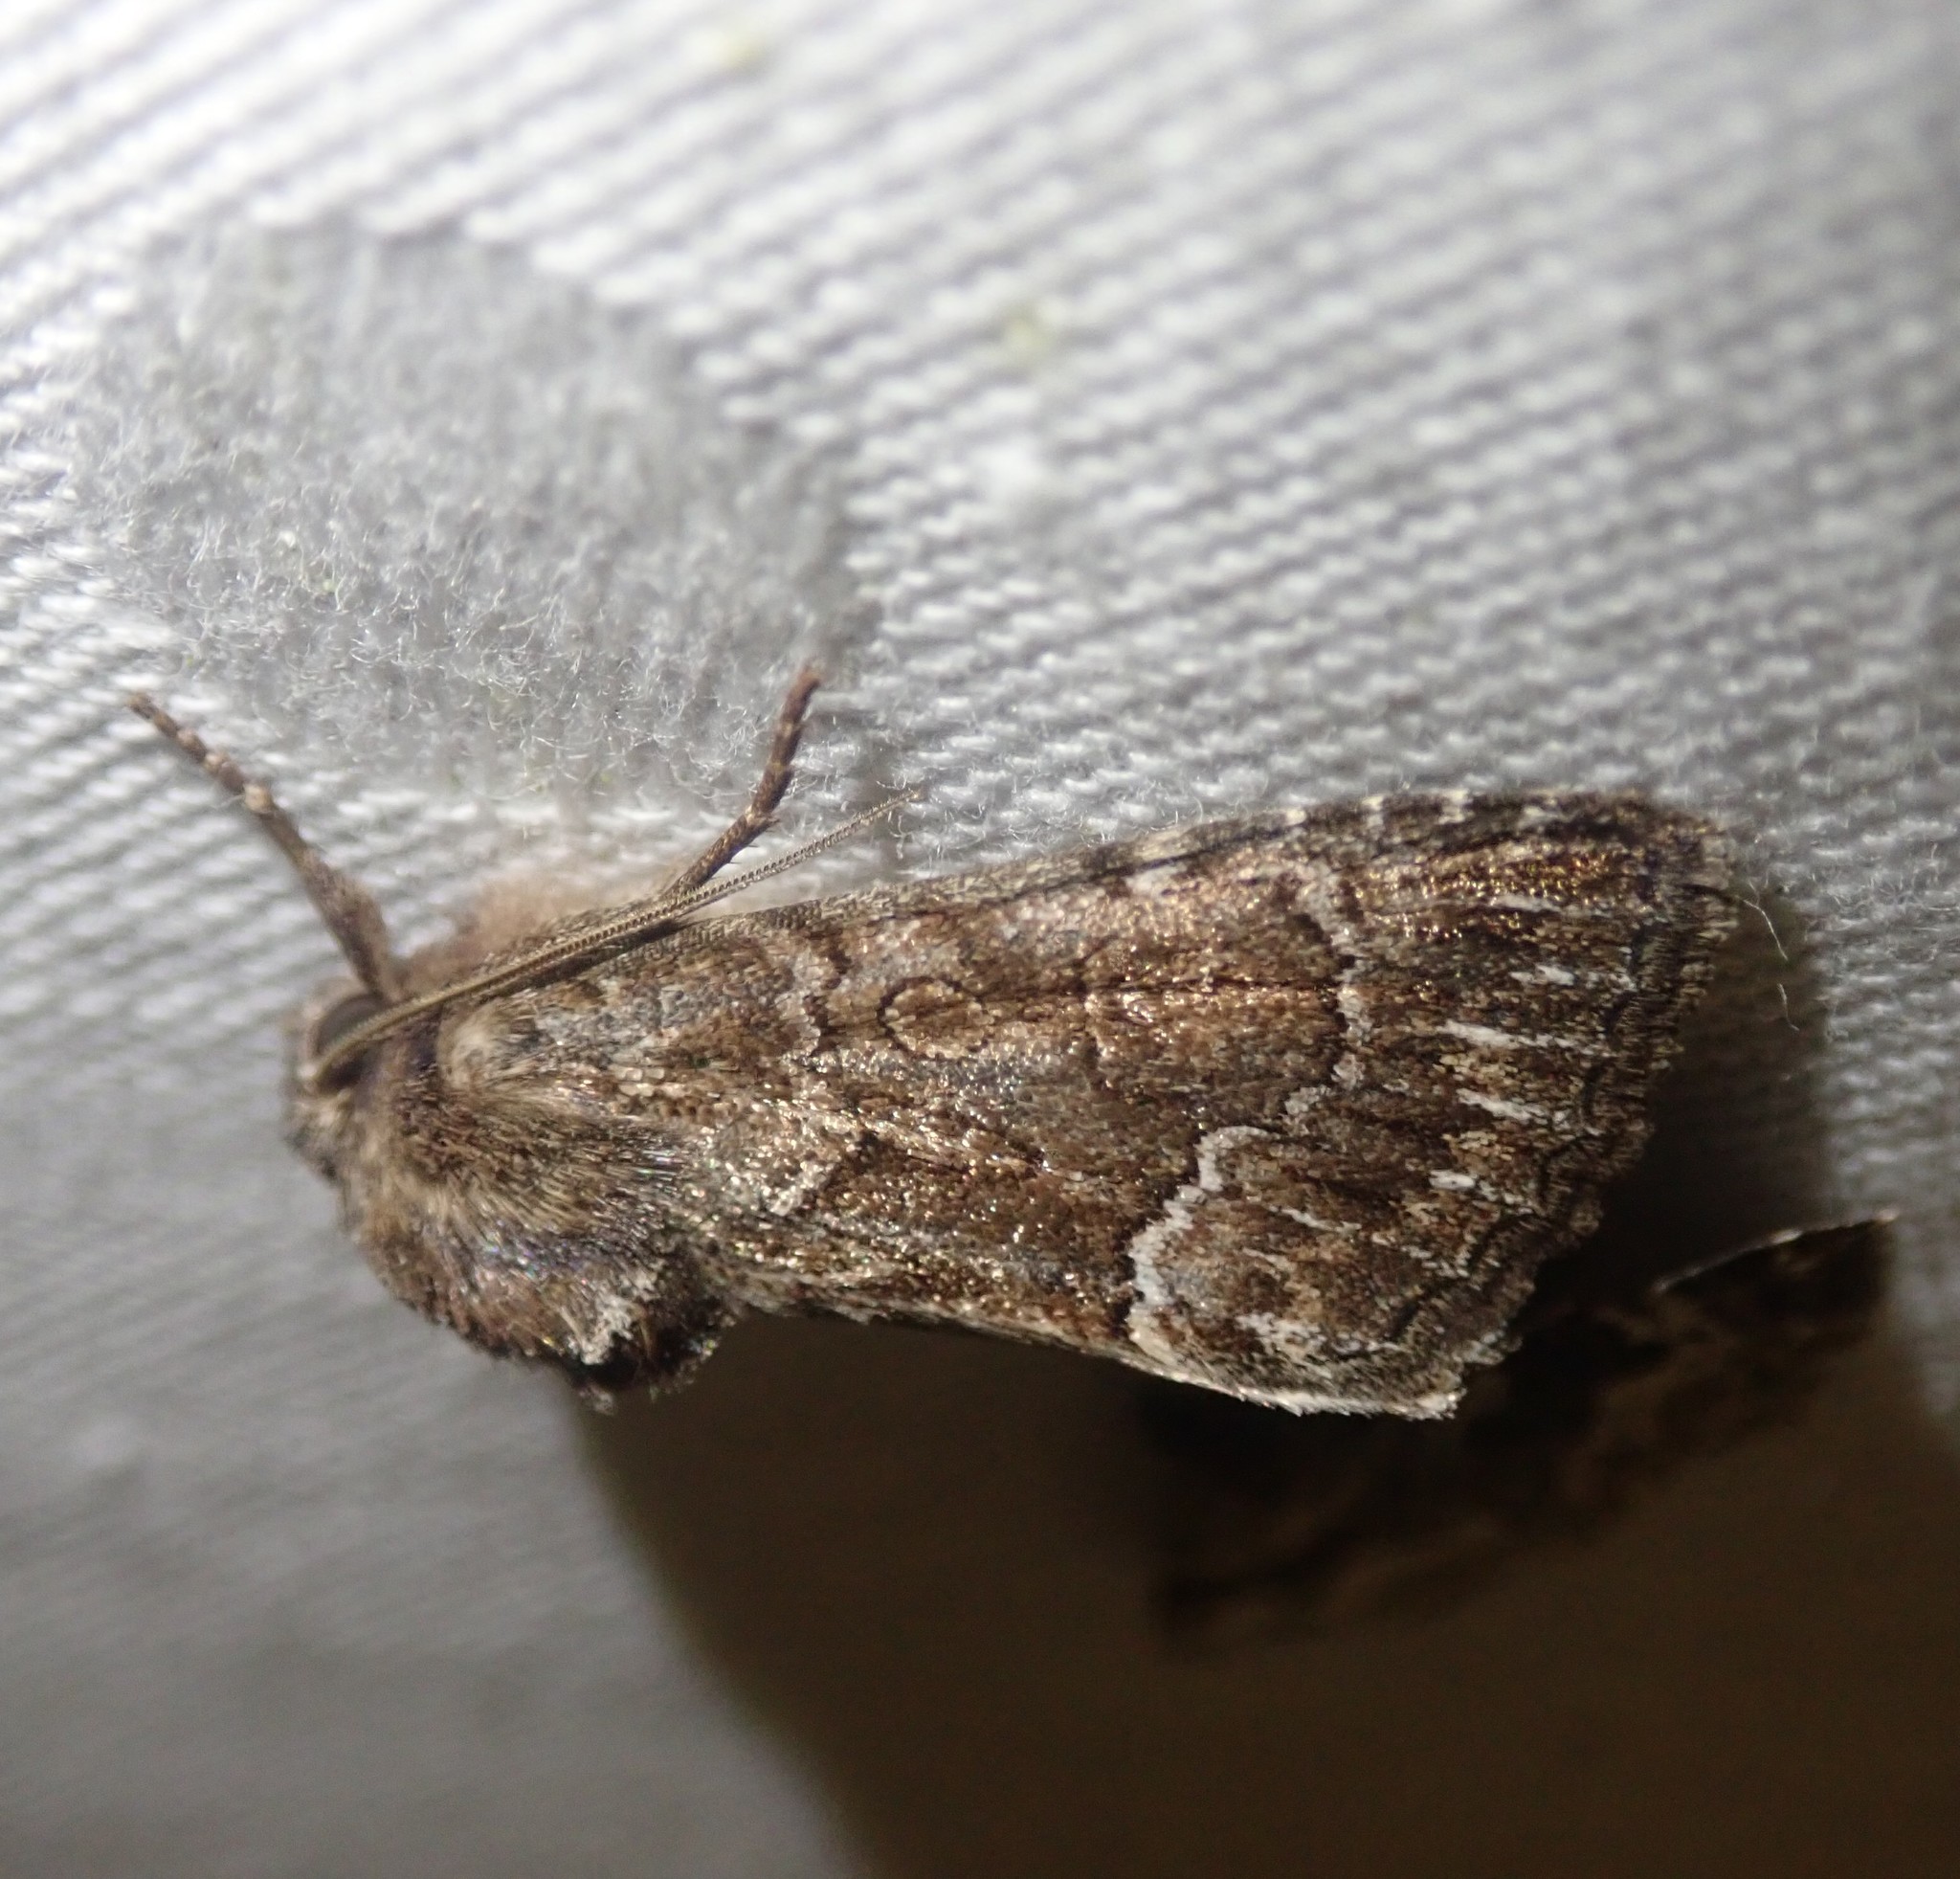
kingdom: Animalia
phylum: Arthropoda
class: Insecta
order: Lepidoptera
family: Noctuidae
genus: Thalpophila
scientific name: Thalpophila matura
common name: Straw underwing
